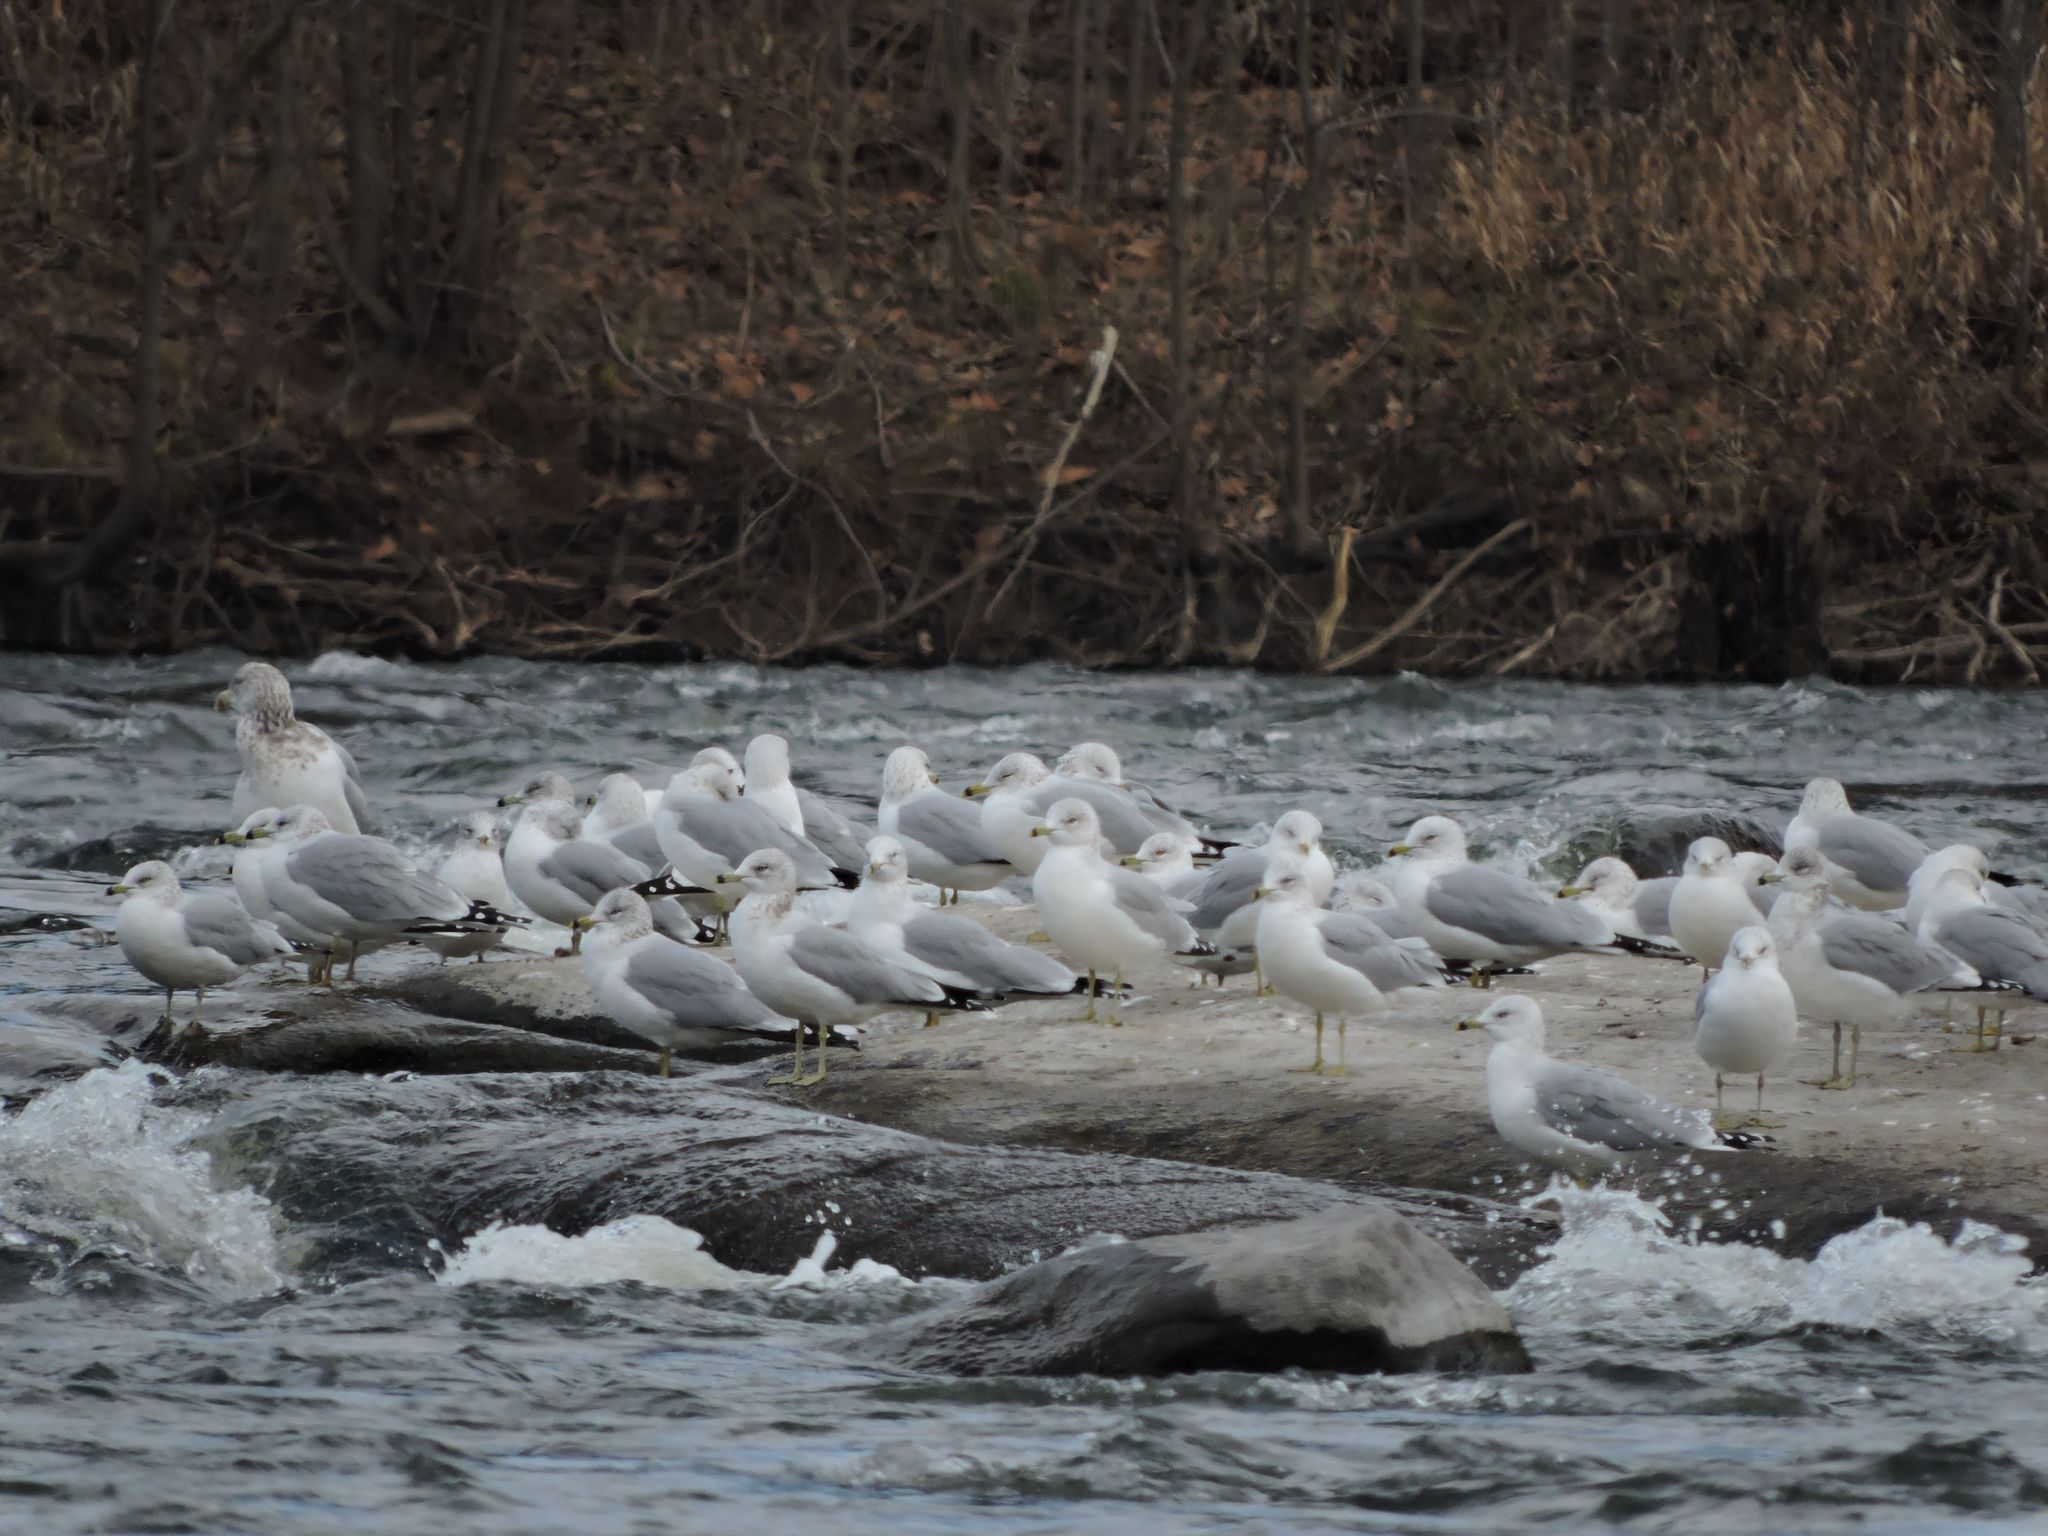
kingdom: Animalia
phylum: Chordata
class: Aves
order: Charadriiformes
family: Laridae
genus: Larus
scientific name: Larus delawarensis
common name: Ring-billed gull
